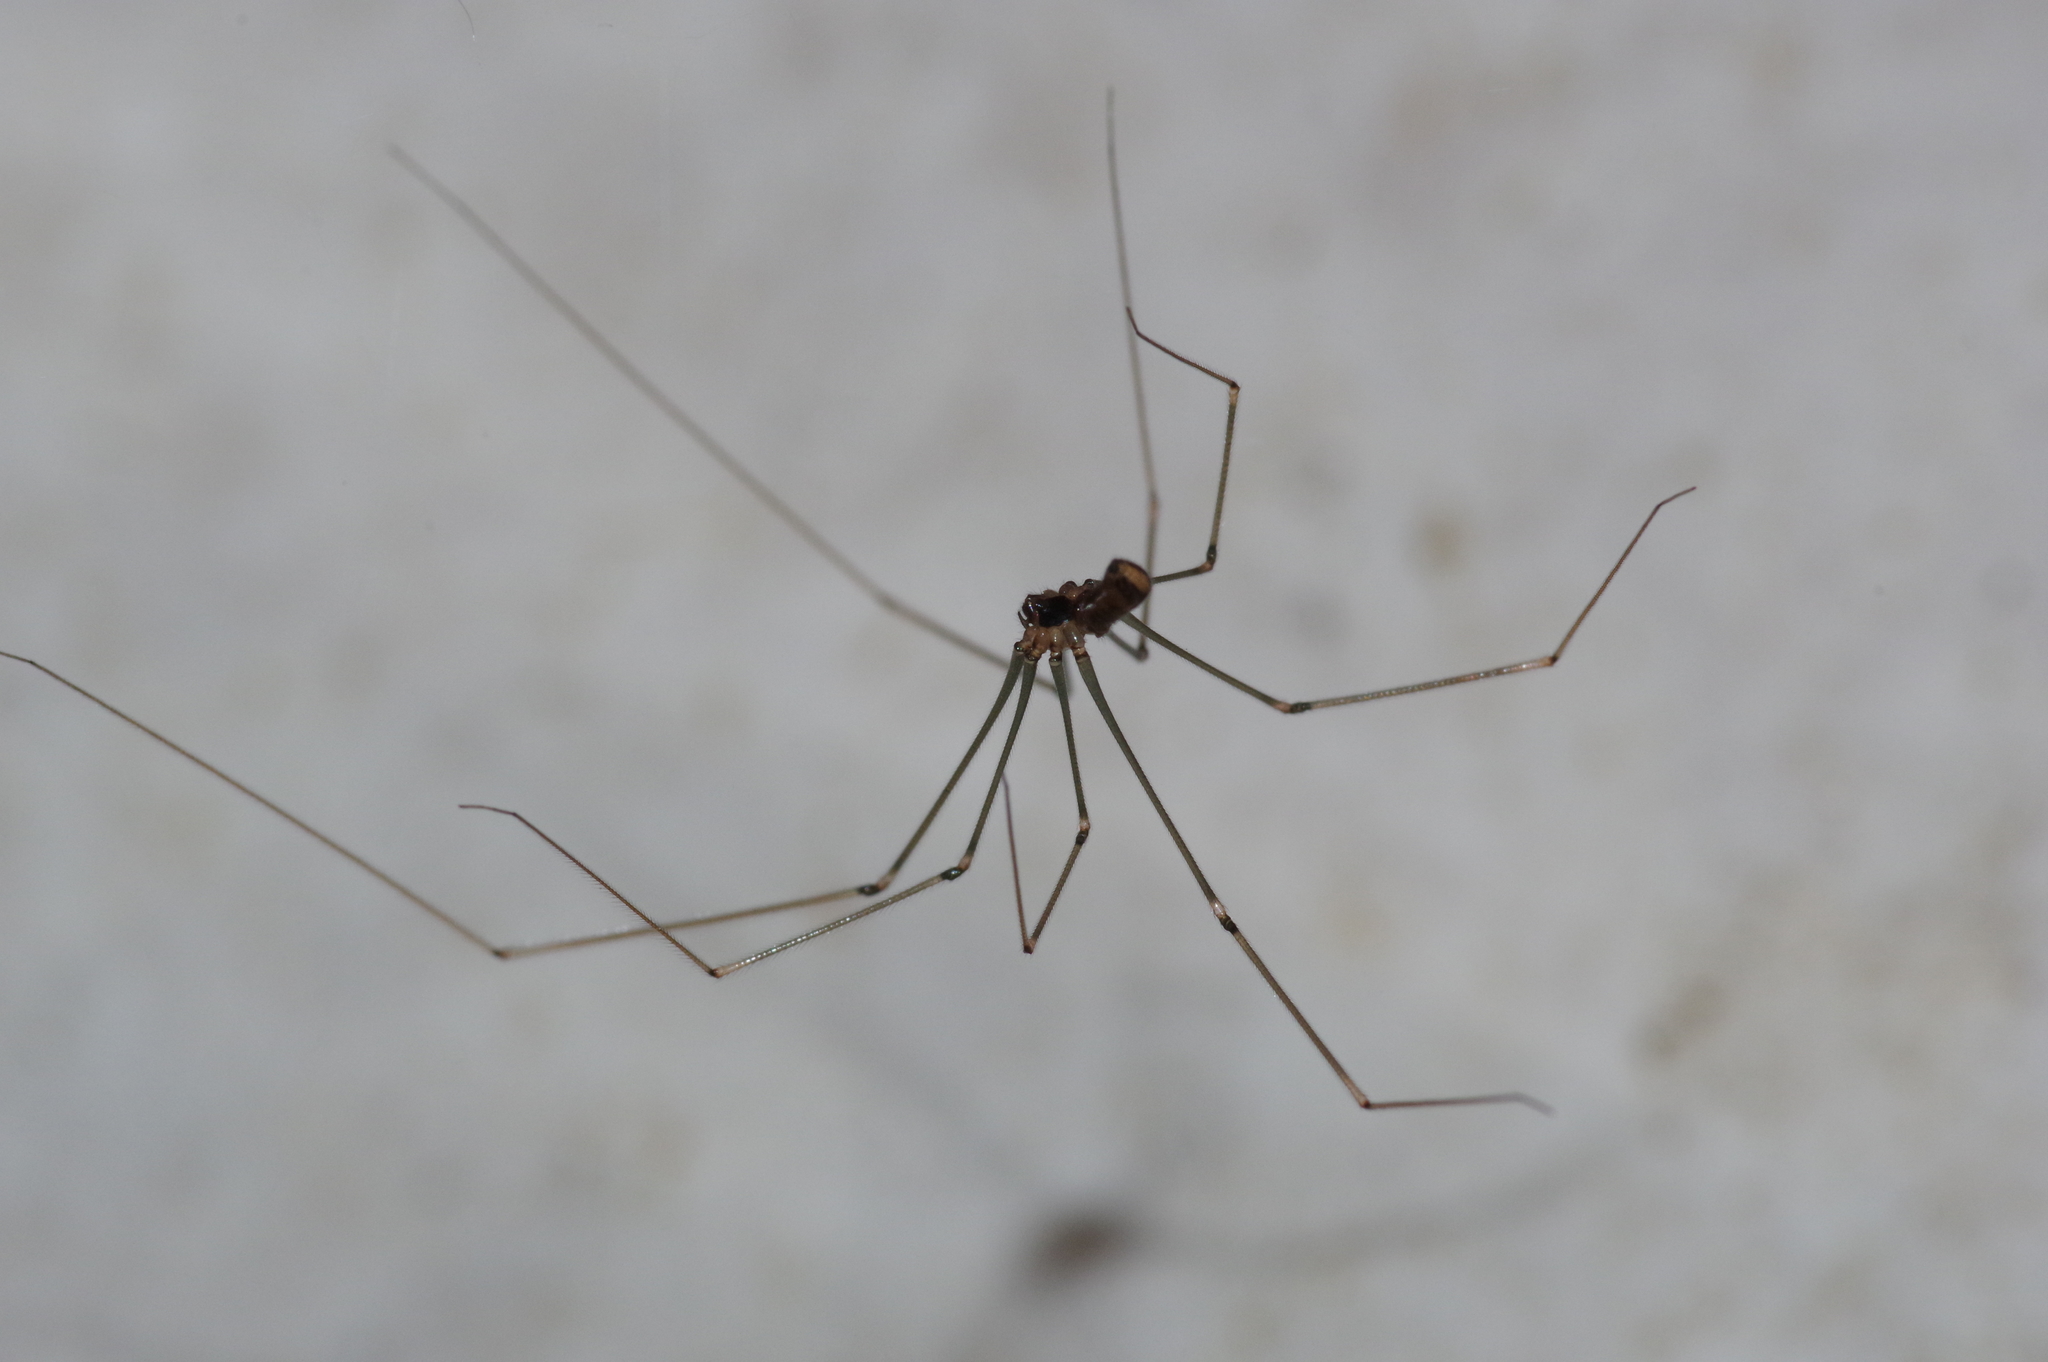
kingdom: Animalia
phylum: Arthropoda
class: Arachnida
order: Araneae
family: Pholcidae
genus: Physocyclus
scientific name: Physocyclus globosus
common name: Cellar spiders
